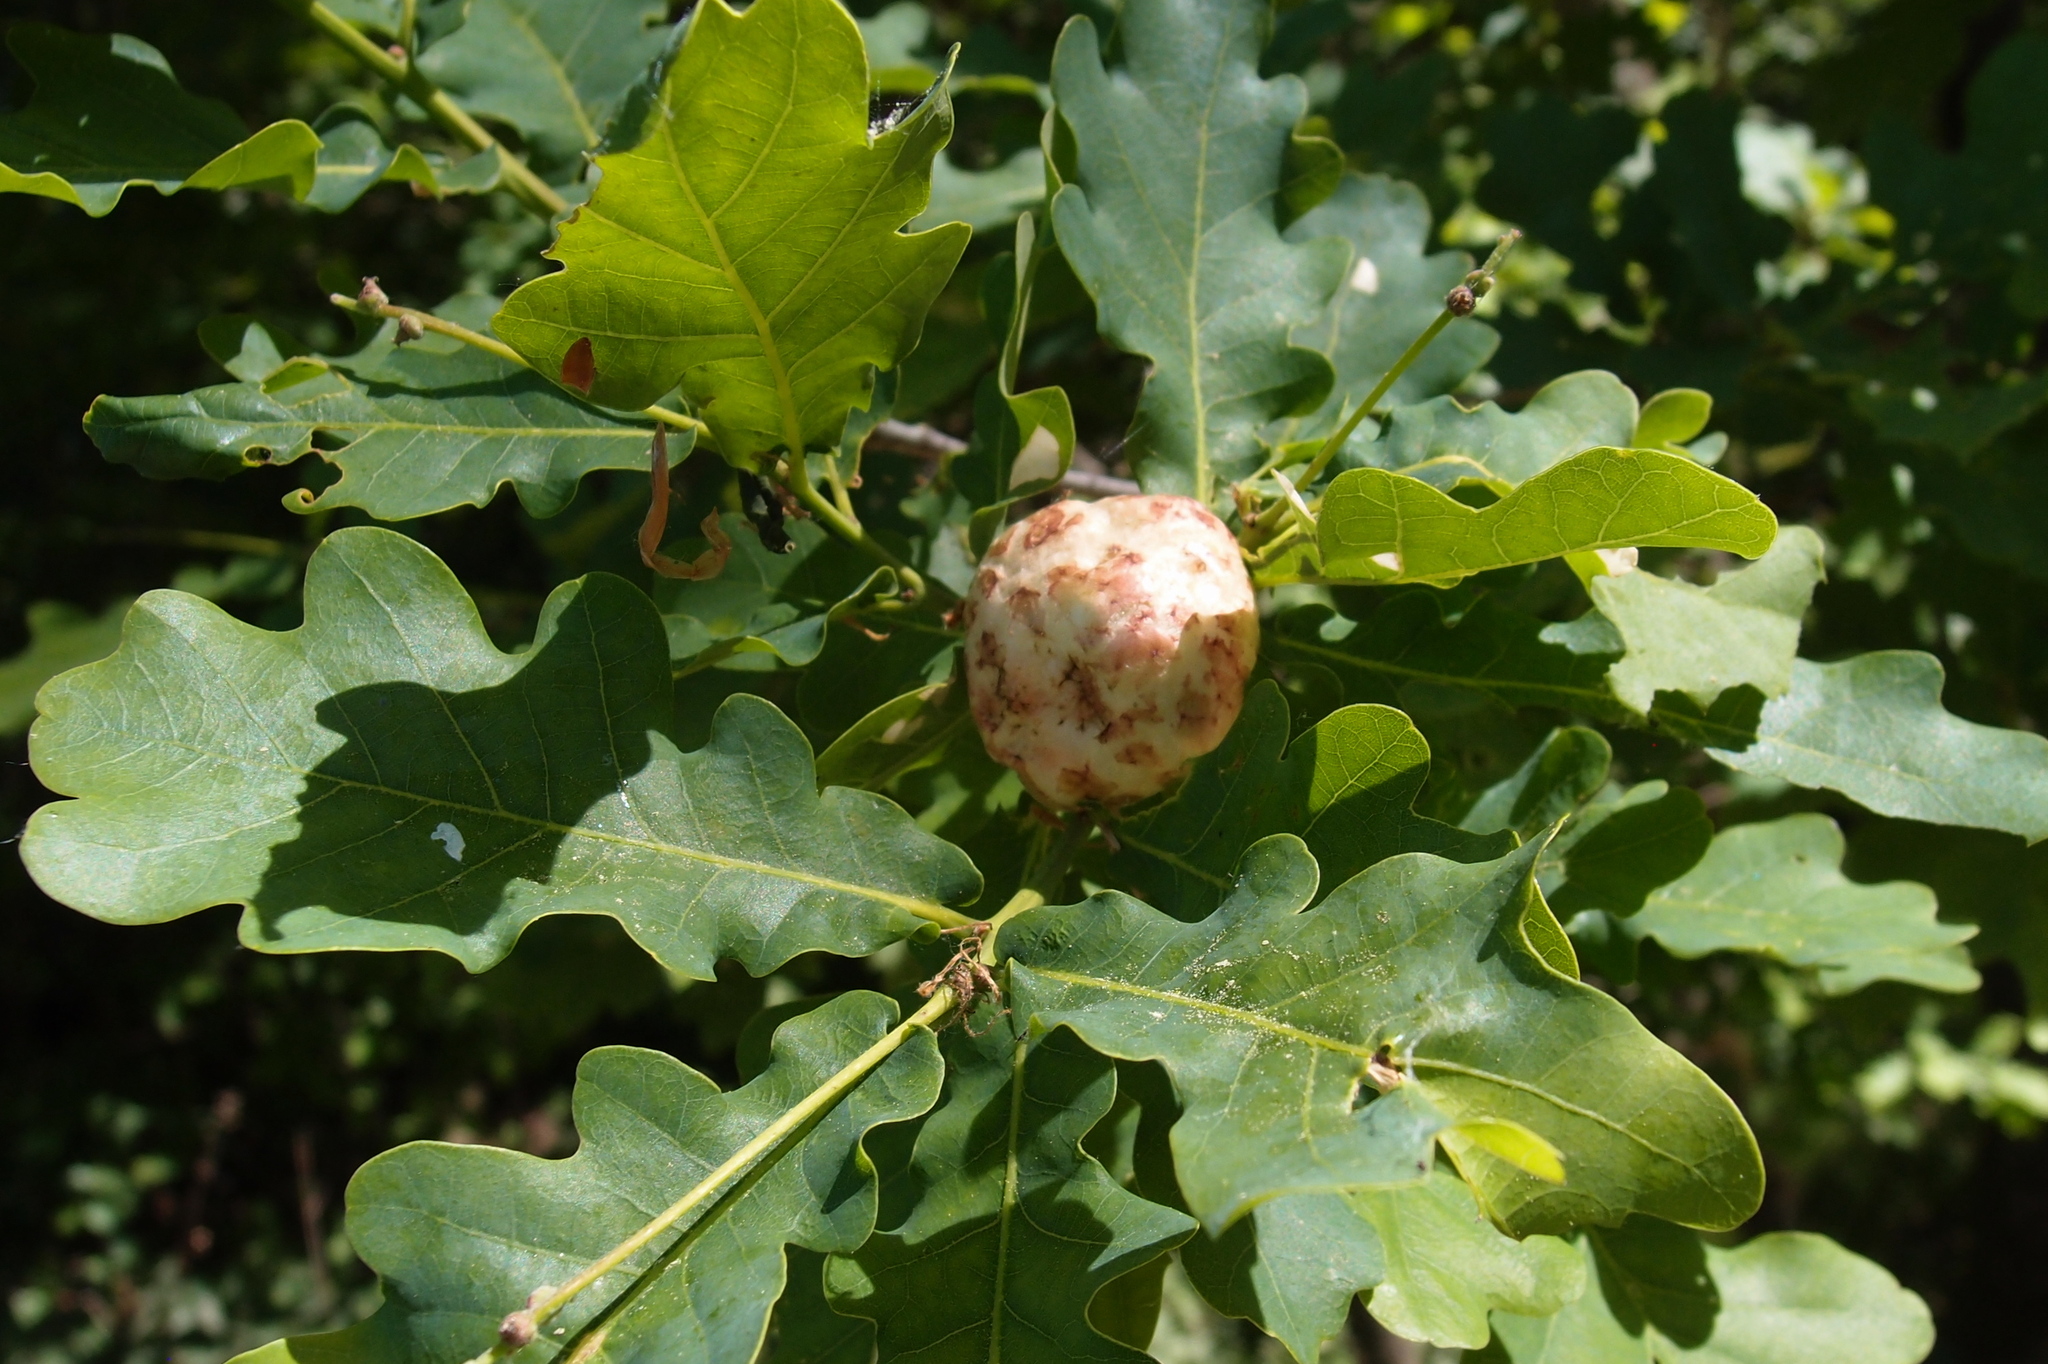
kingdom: Animalia
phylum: Arthropoda
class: Insecta
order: Hymenoptera
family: Cynipidae
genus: Biorhiza
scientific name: Biorhiza pallida
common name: Oak apple
